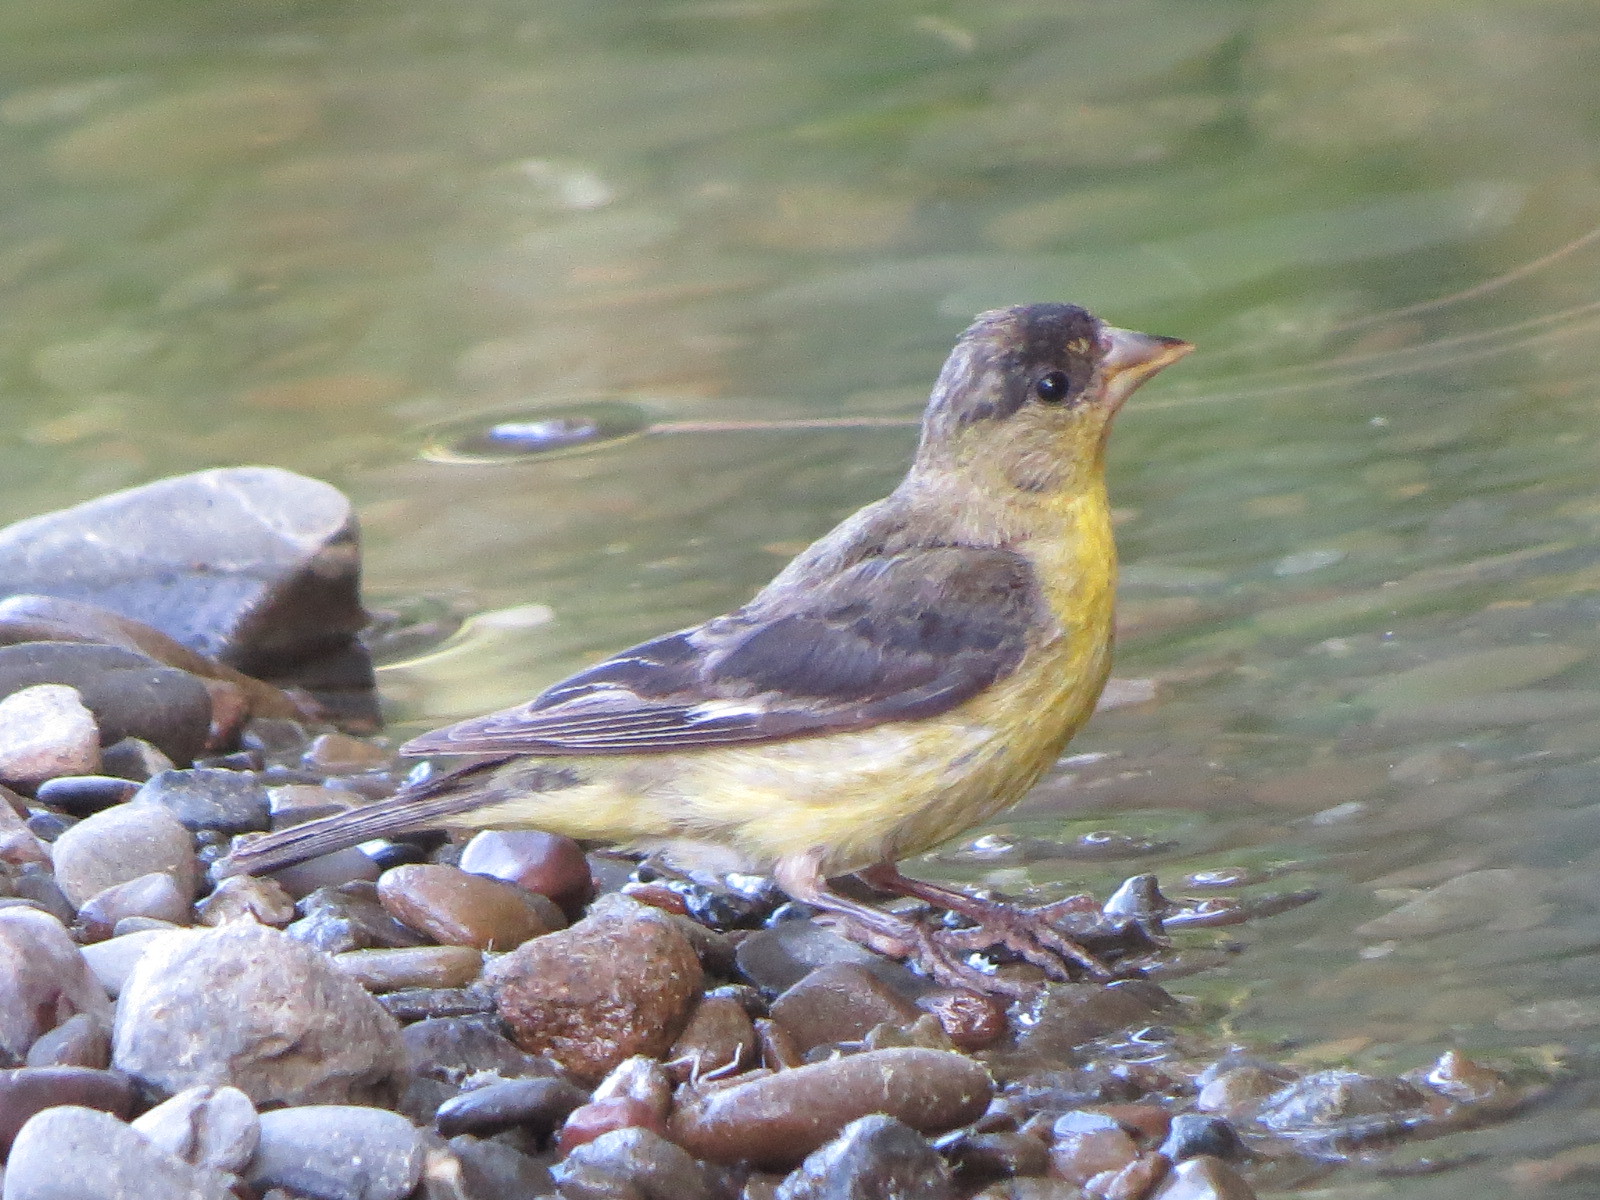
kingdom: Animalia
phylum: Chordata
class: Aves
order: Passeriformes
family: Fringillidae
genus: Spinus
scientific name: Spinus psaltria
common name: Lesser goldfinch
